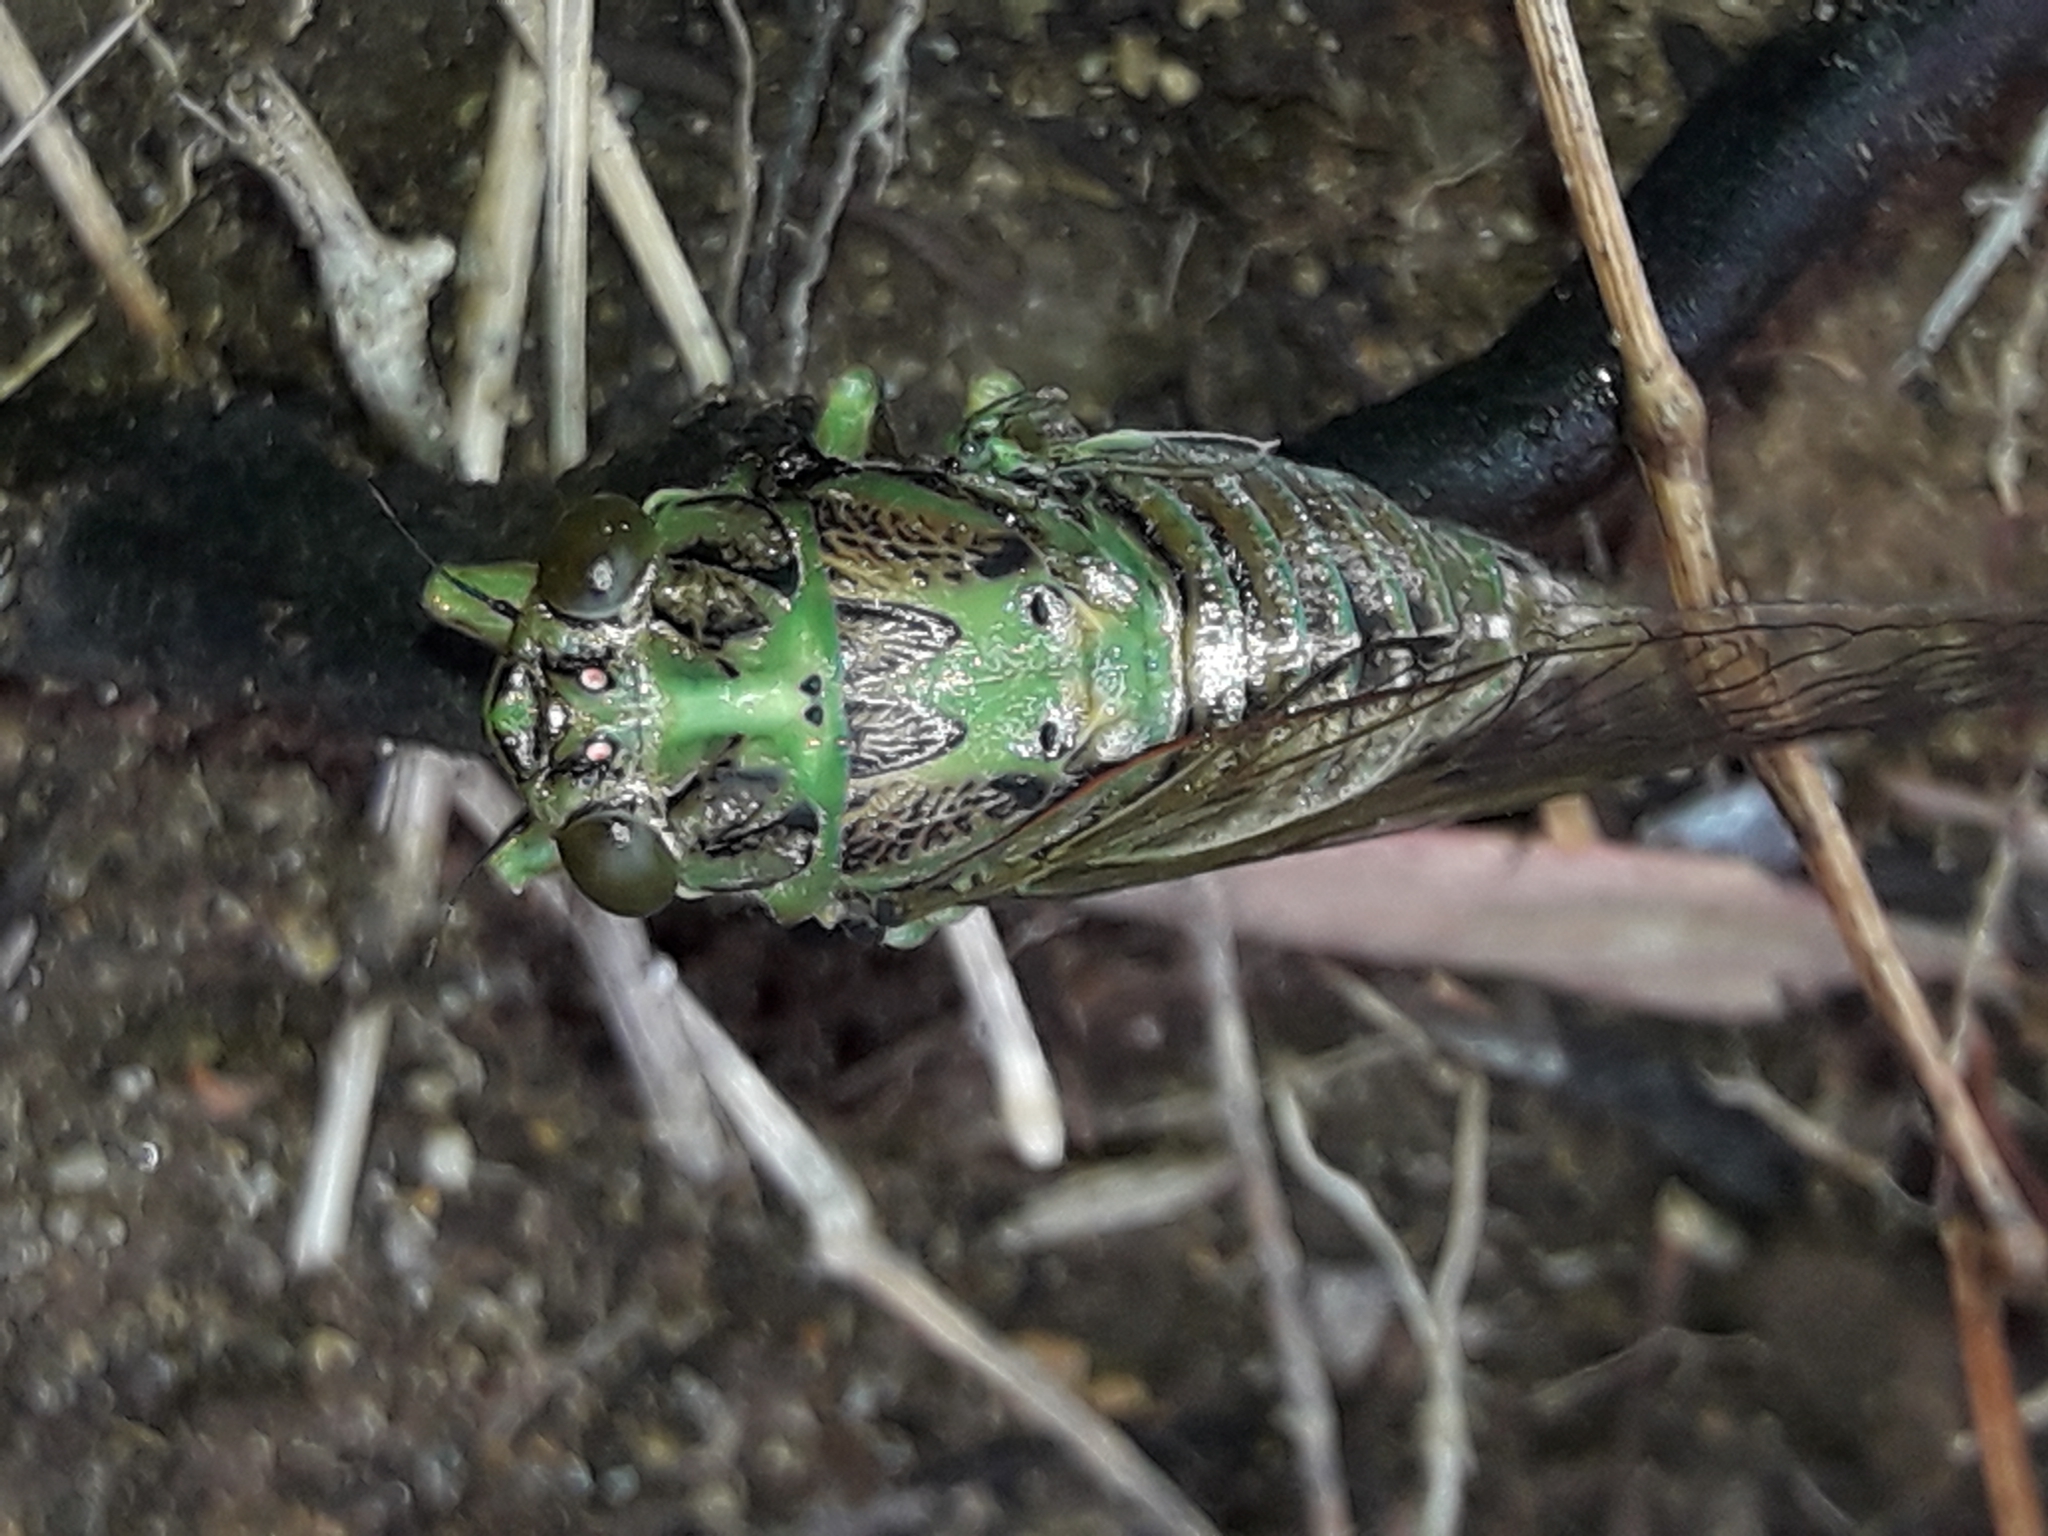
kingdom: Animalia
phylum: Arthropoda
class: Insecta
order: Hemiptera
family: Cicadidae
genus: Kikihia
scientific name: Kikihia scutellaris
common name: Lesser bronze cicada
